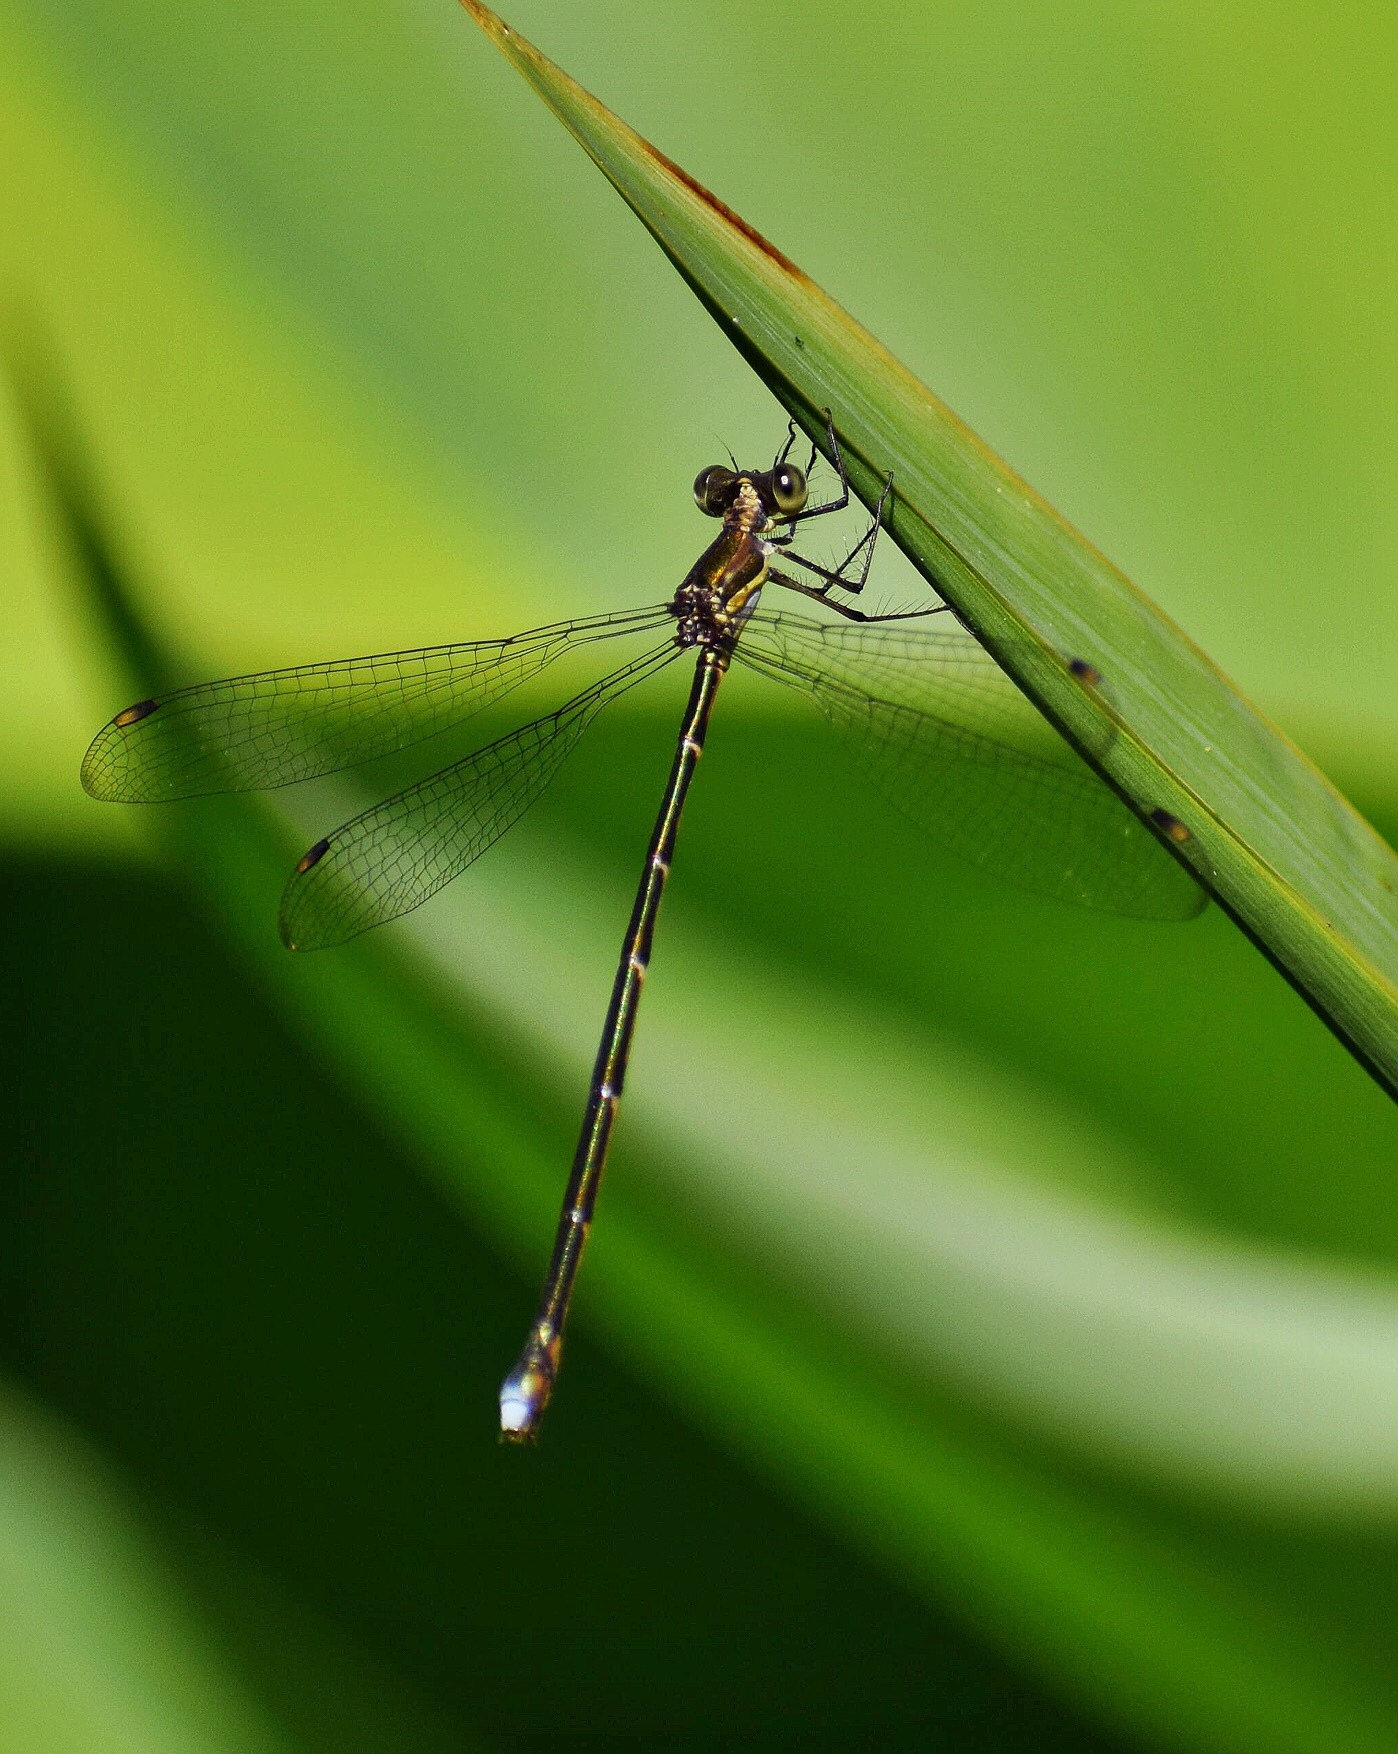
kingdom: Animalia
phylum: Arthropoda
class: Insecta
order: Odonata
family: Synlestidae
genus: Chlorolestes
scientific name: Chlorolestes tessellatus
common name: Forest malachite
